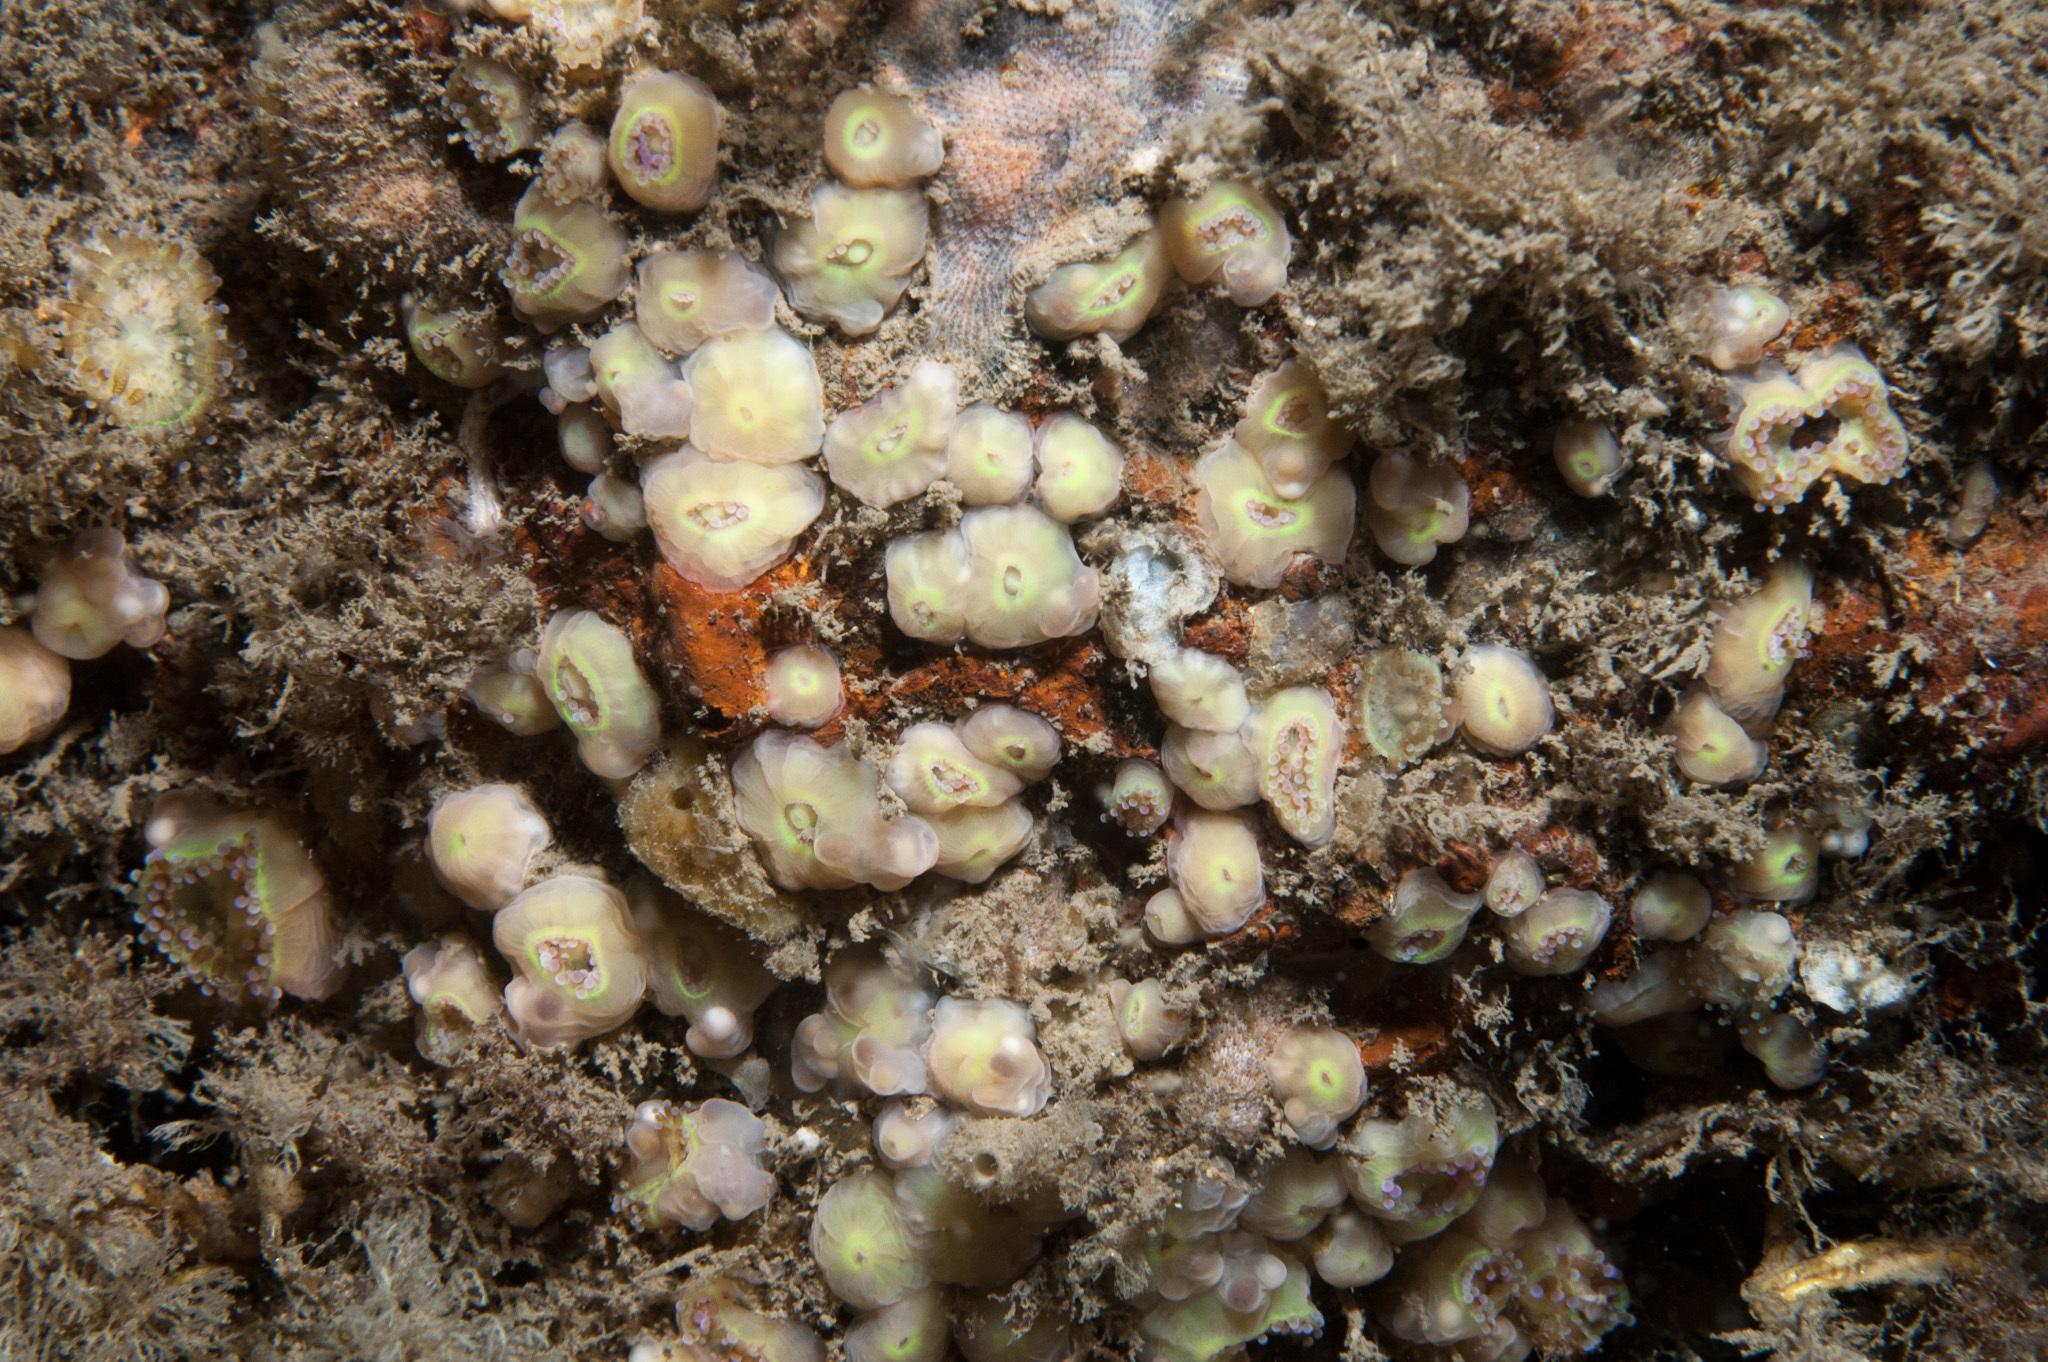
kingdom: Animalia
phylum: Cnidaria
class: Anthozoa
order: Corallimorpharia
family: Corallimorphidae
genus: Corynactis
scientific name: Corynactis viridis
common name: Jewel anemone
